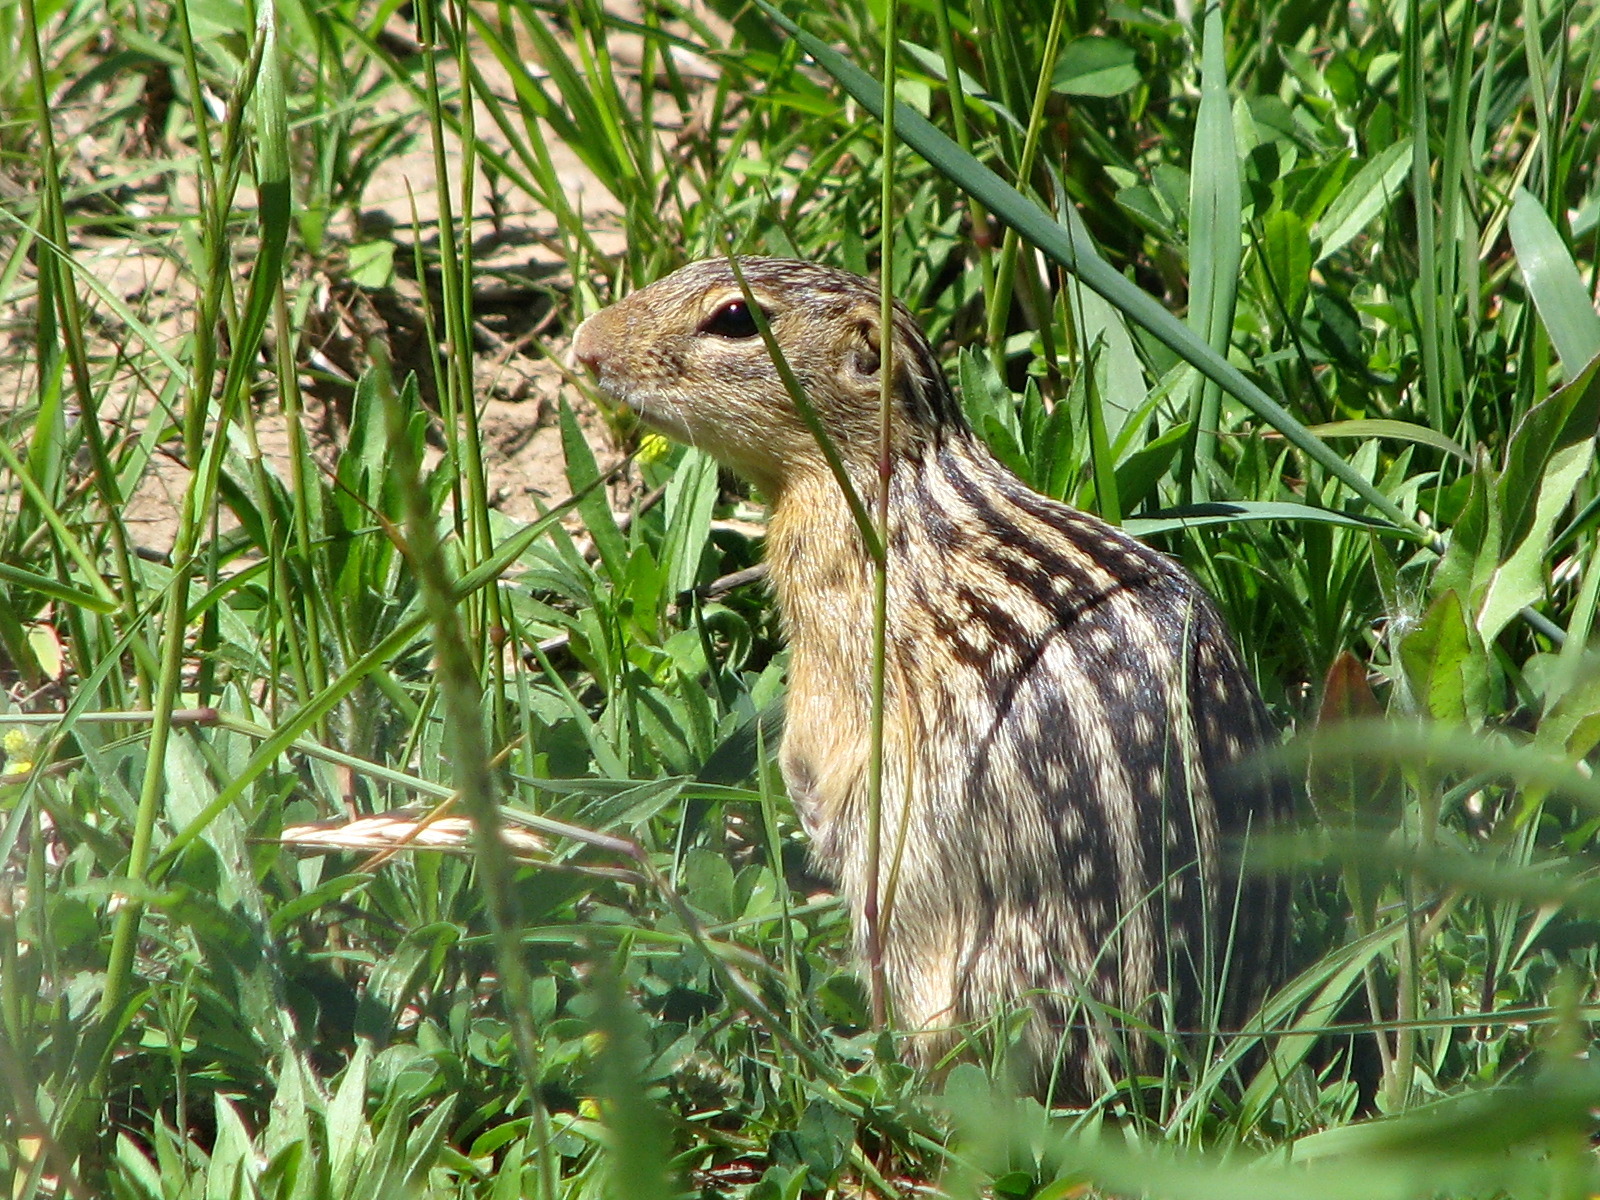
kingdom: Animalia
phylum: Chordata
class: Mammalia
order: Rodentia
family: Sciuridae
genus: Ictidomys
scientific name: Ictidomys tridecemlineatus
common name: Thirteen-lined ground squirrel
